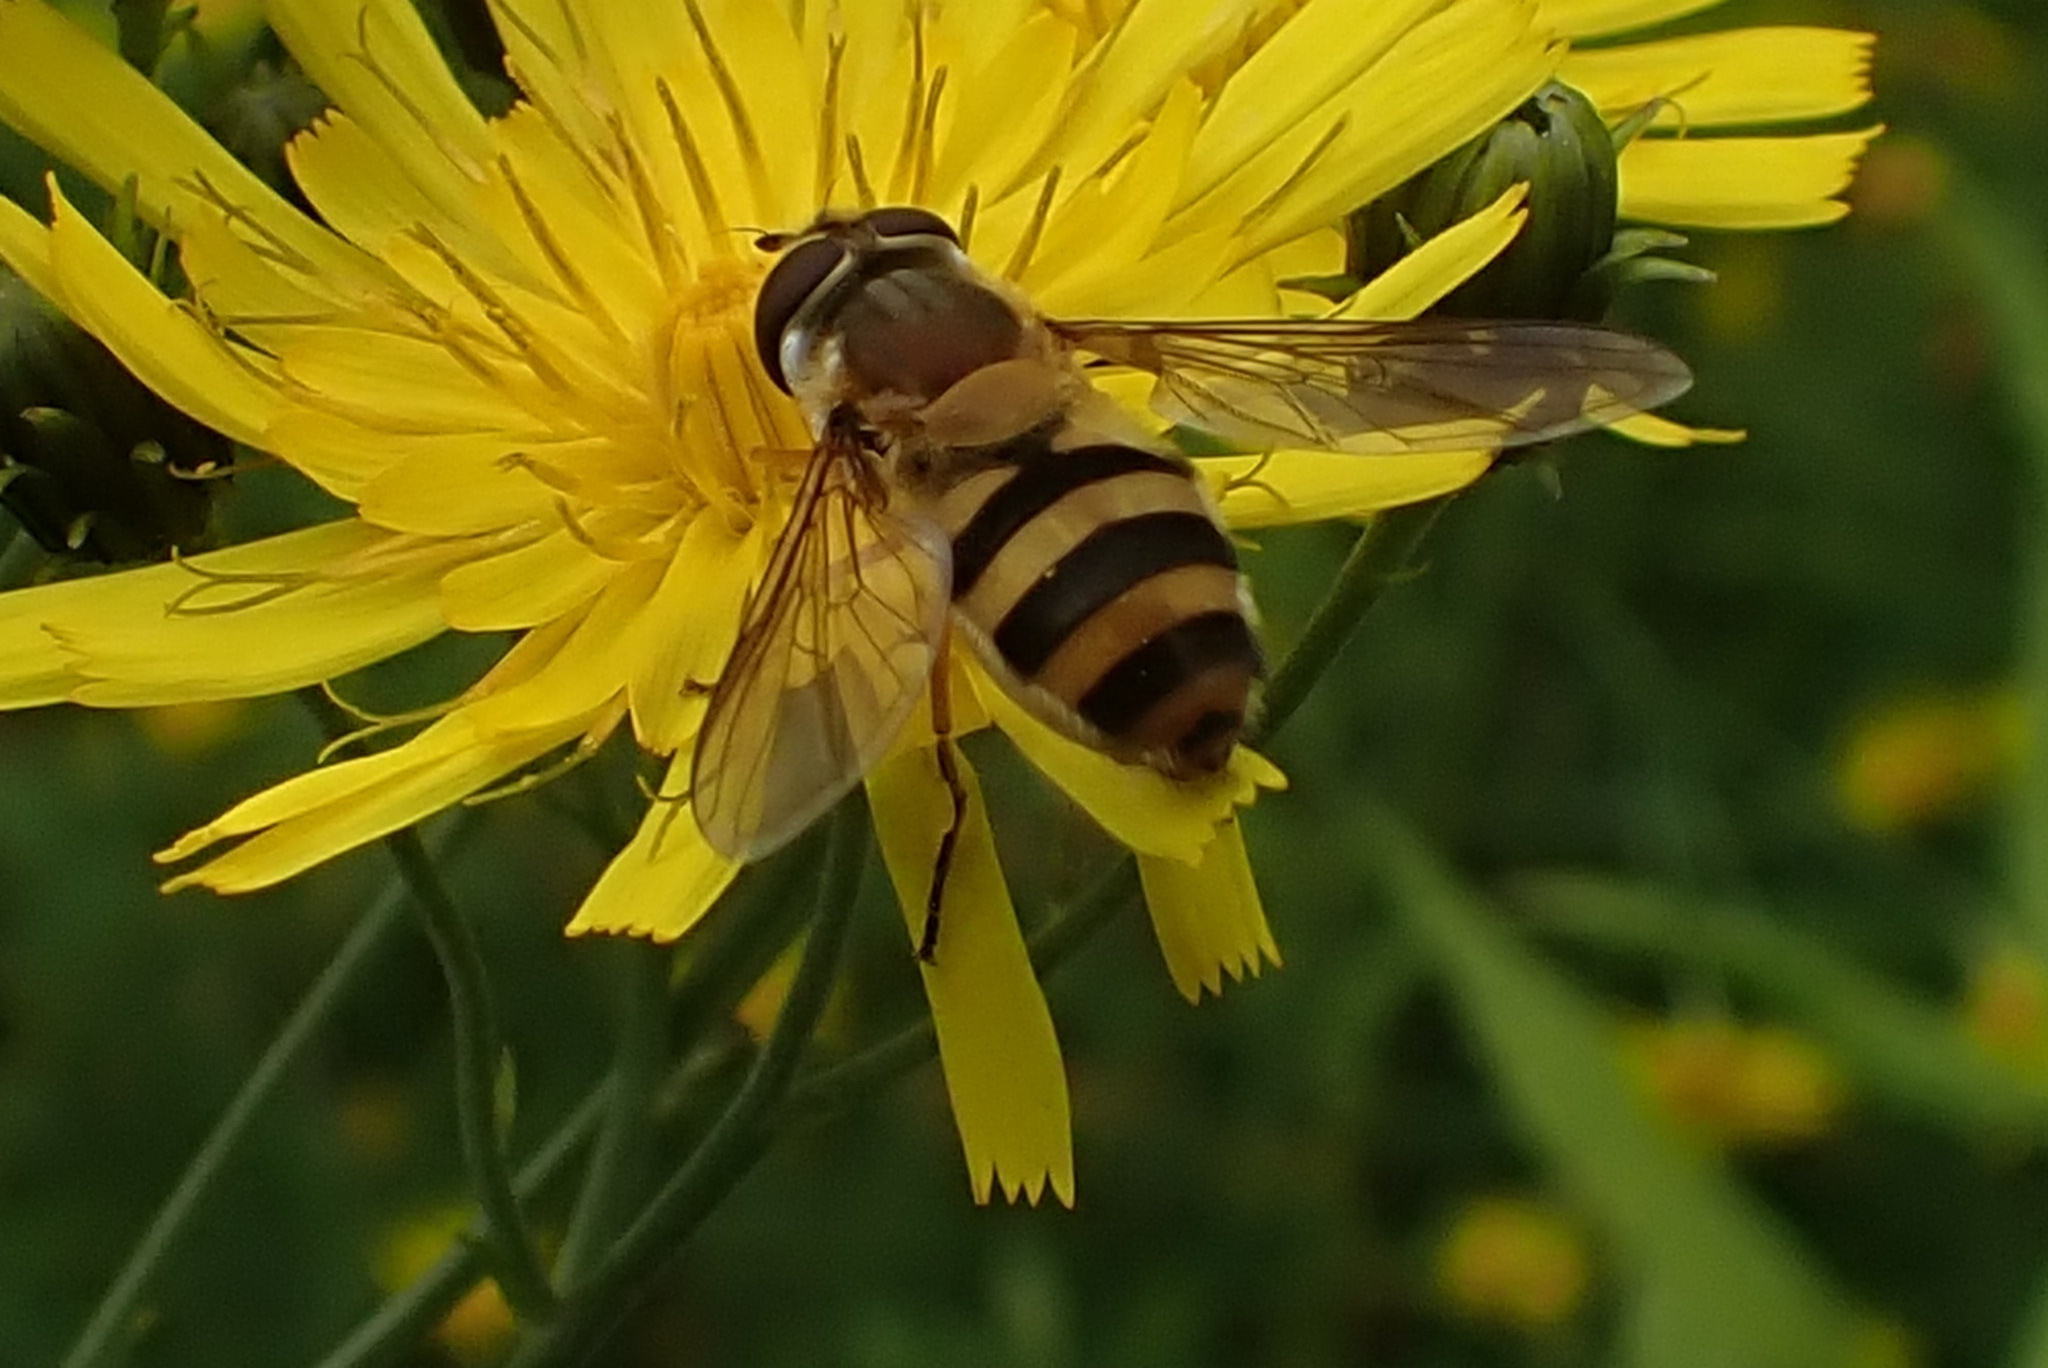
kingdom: Animalia
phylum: Arthropoda
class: Insecta
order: Diptera
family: Syrphidae
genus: Epistrophe
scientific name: Epistrophe grossulariae
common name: Black-horned smoothtail
